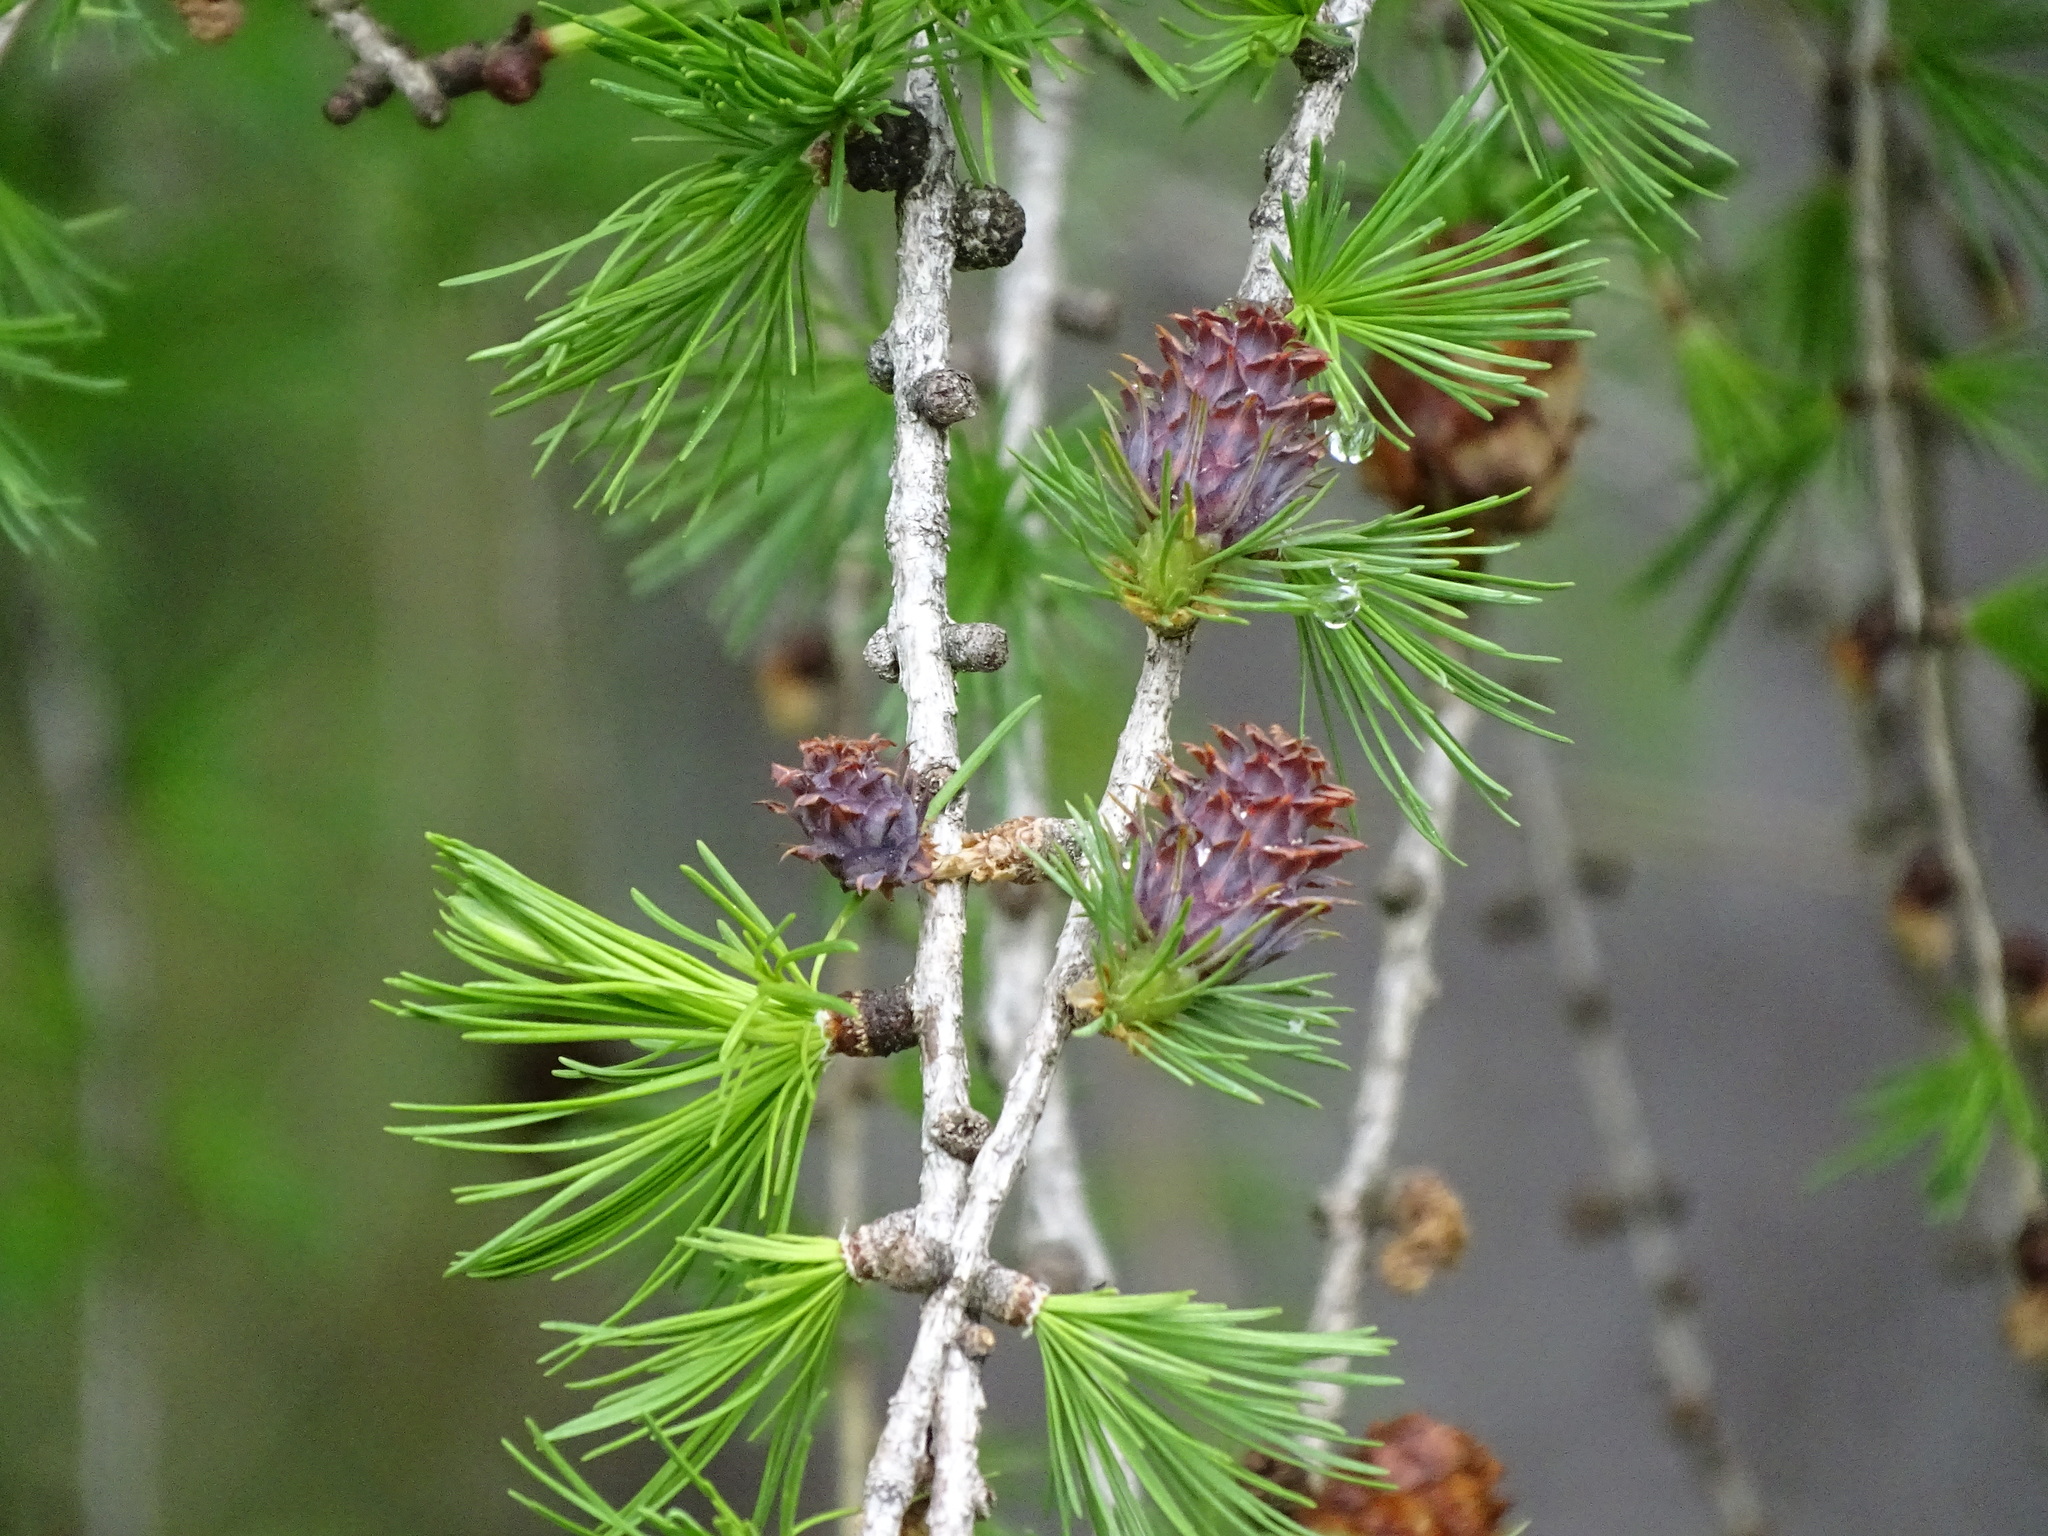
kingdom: Plantae
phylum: Tracheophyta
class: Pinopsida
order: Pinales
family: Pinaceae
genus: Larix
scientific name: Larix decidua
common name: European larch
